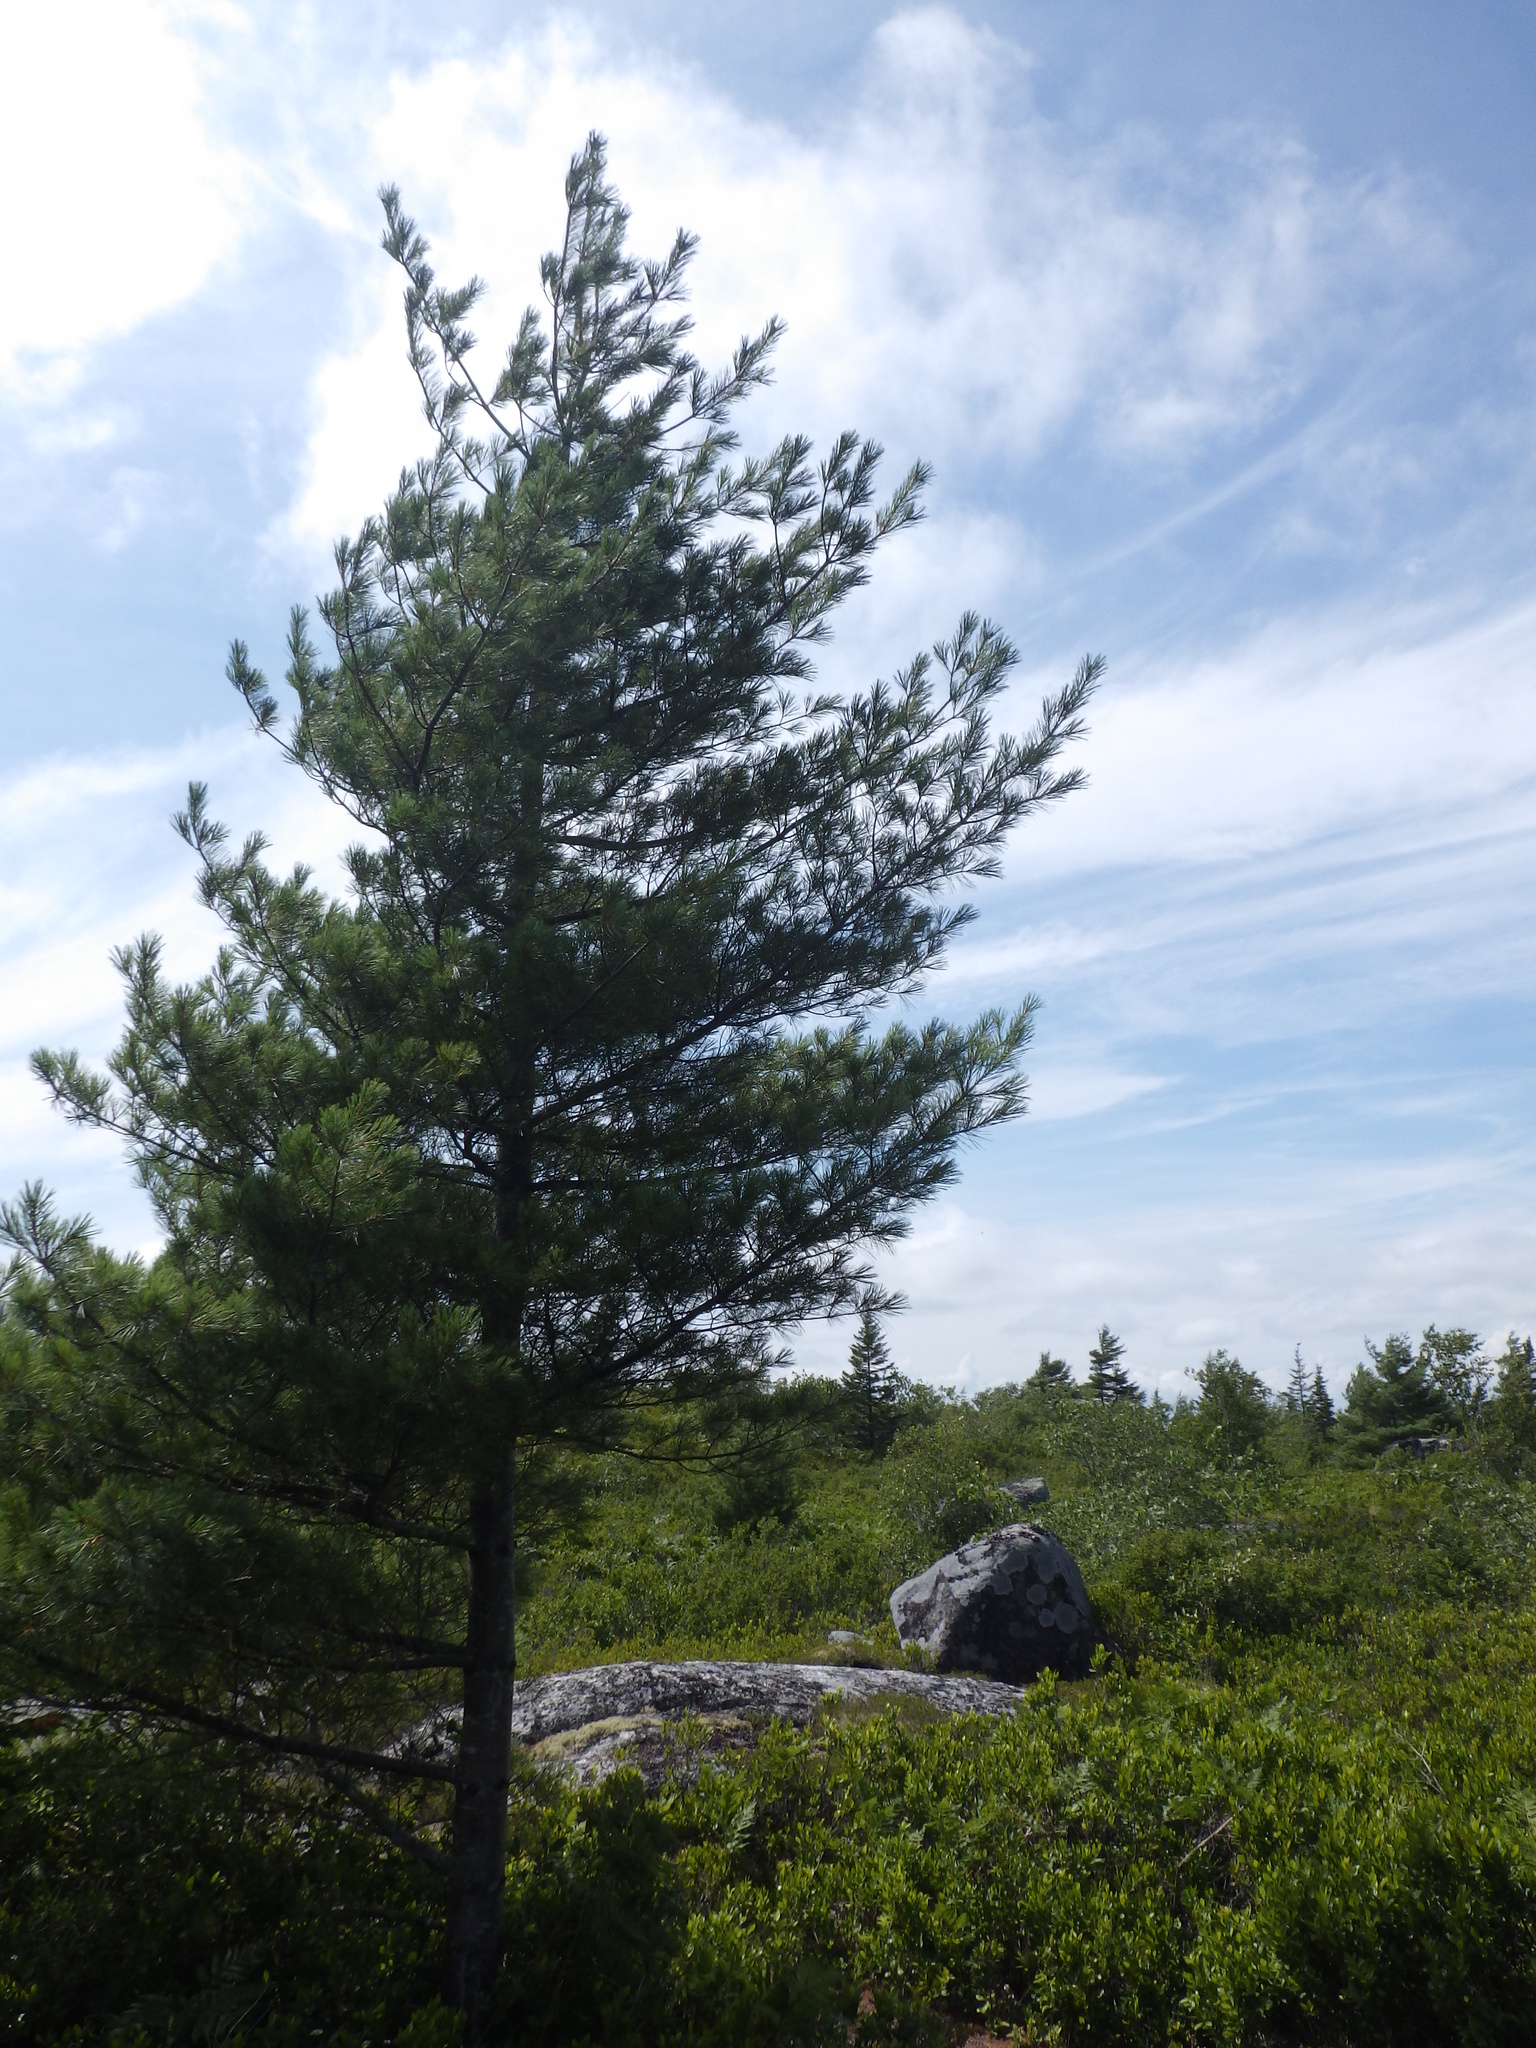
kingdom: Plantae
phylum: Tracheophyta
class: Pinopsida
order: Pinales
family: Pinaceae
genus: Pinus
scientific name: Pinus strobus
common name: Weymouth pine
